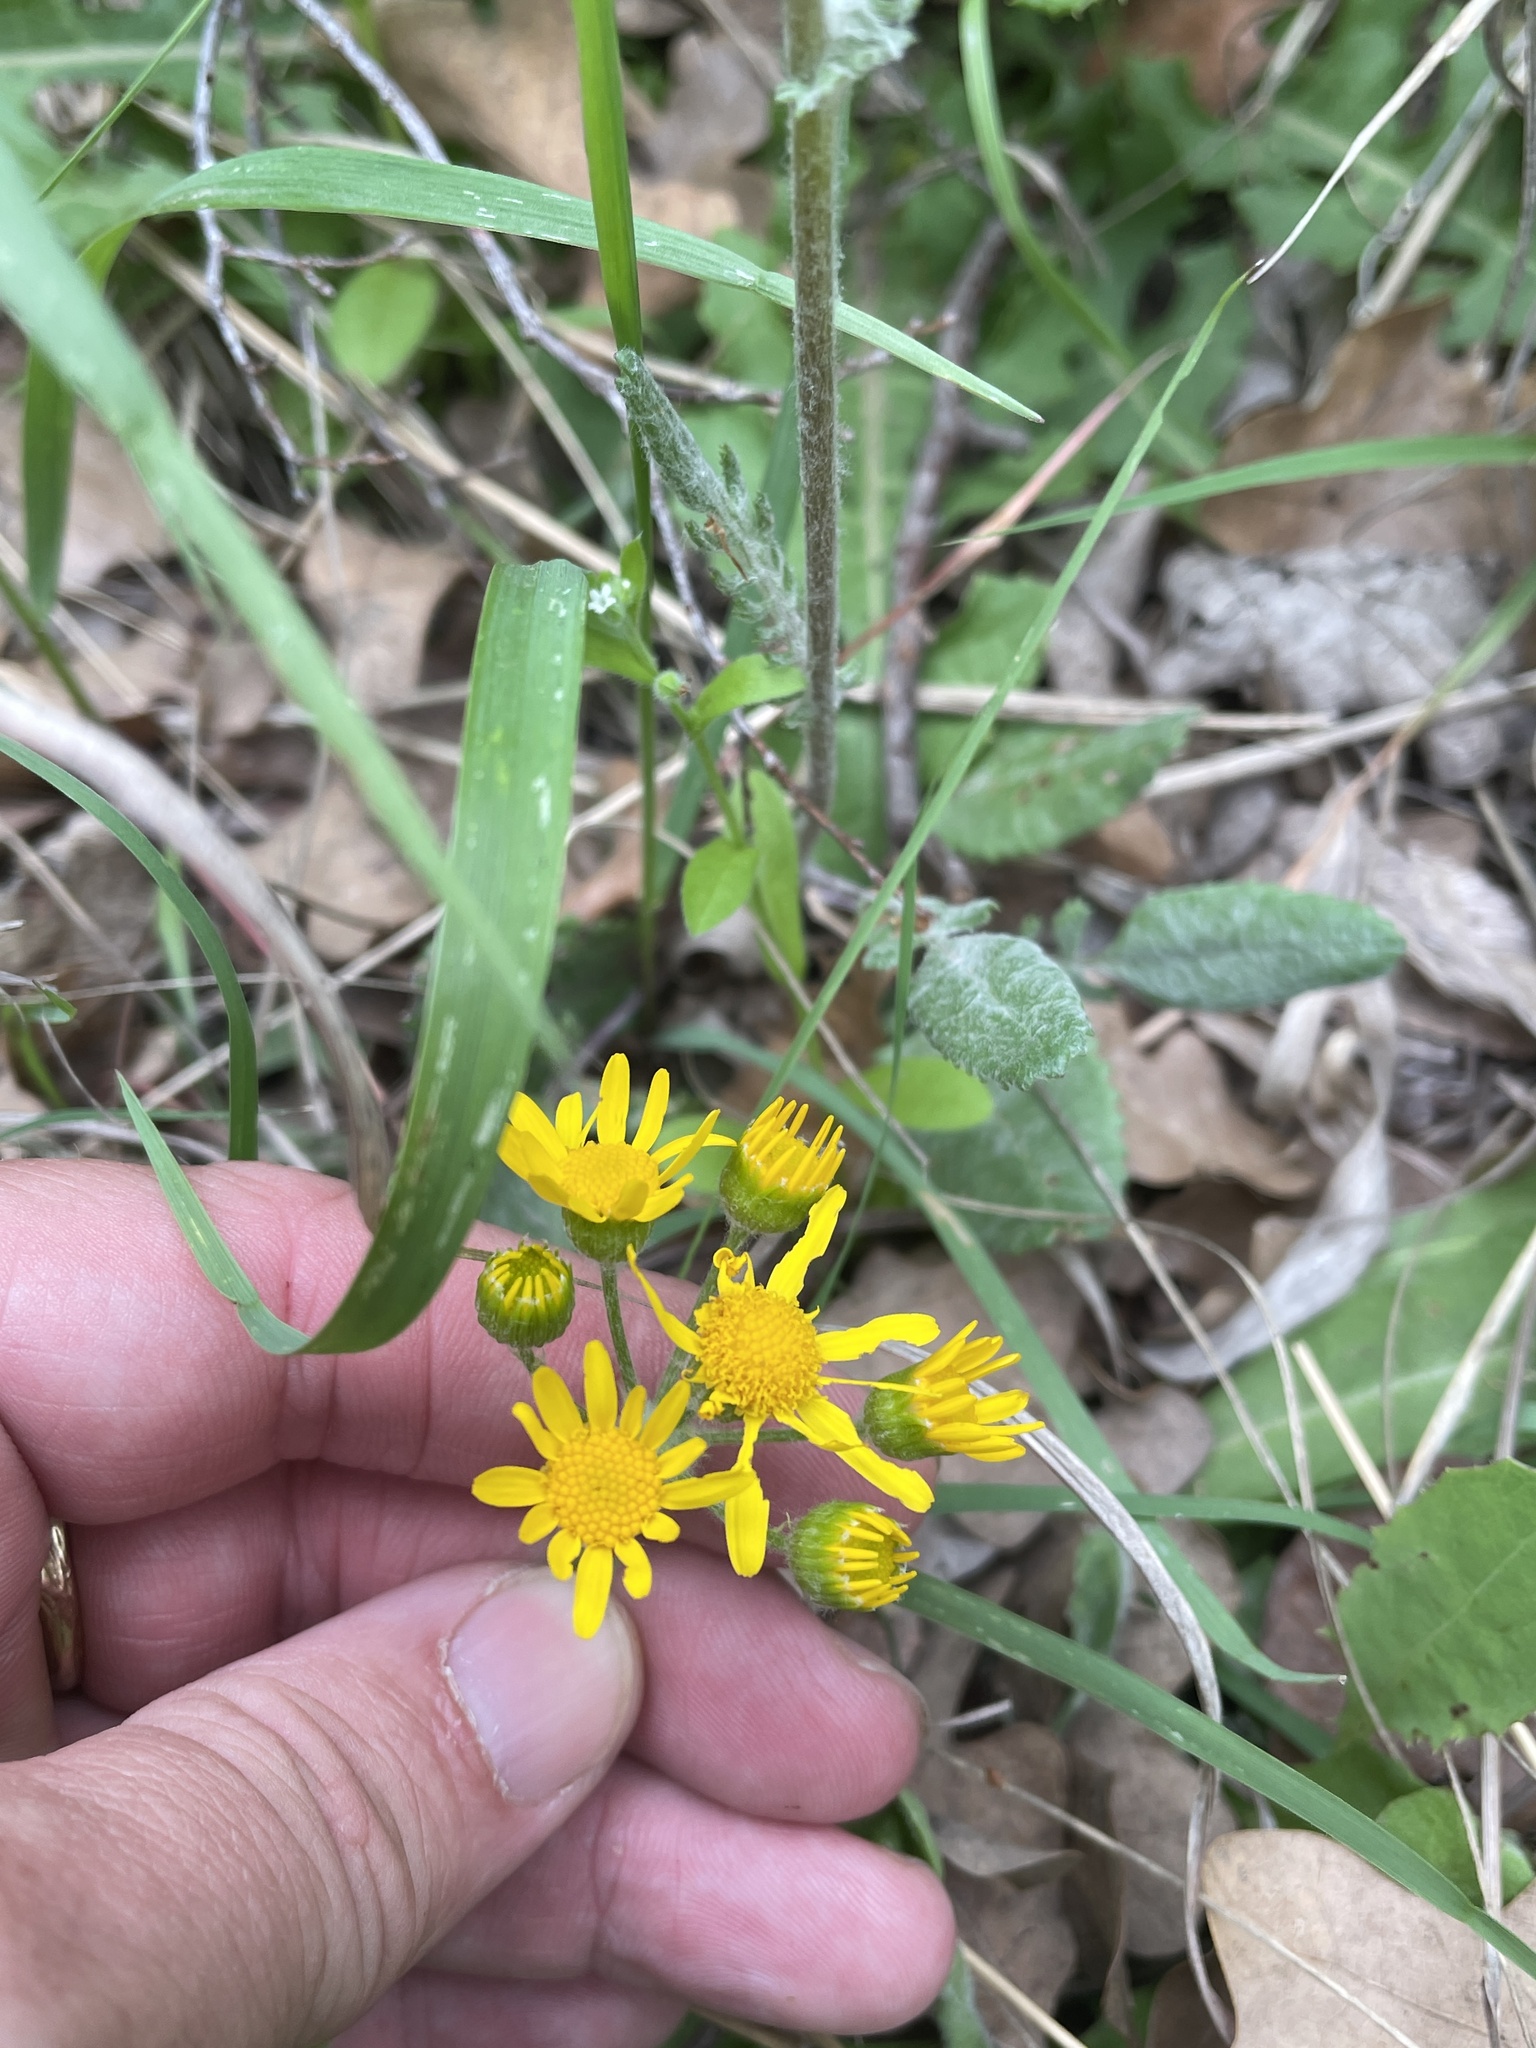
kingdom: Plantae
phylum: Tracheophyta
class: Magnoliopsida
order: Asterales
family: Asteraceae
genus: Packera
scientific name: Packera plattensis
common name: Prairie groundsel
